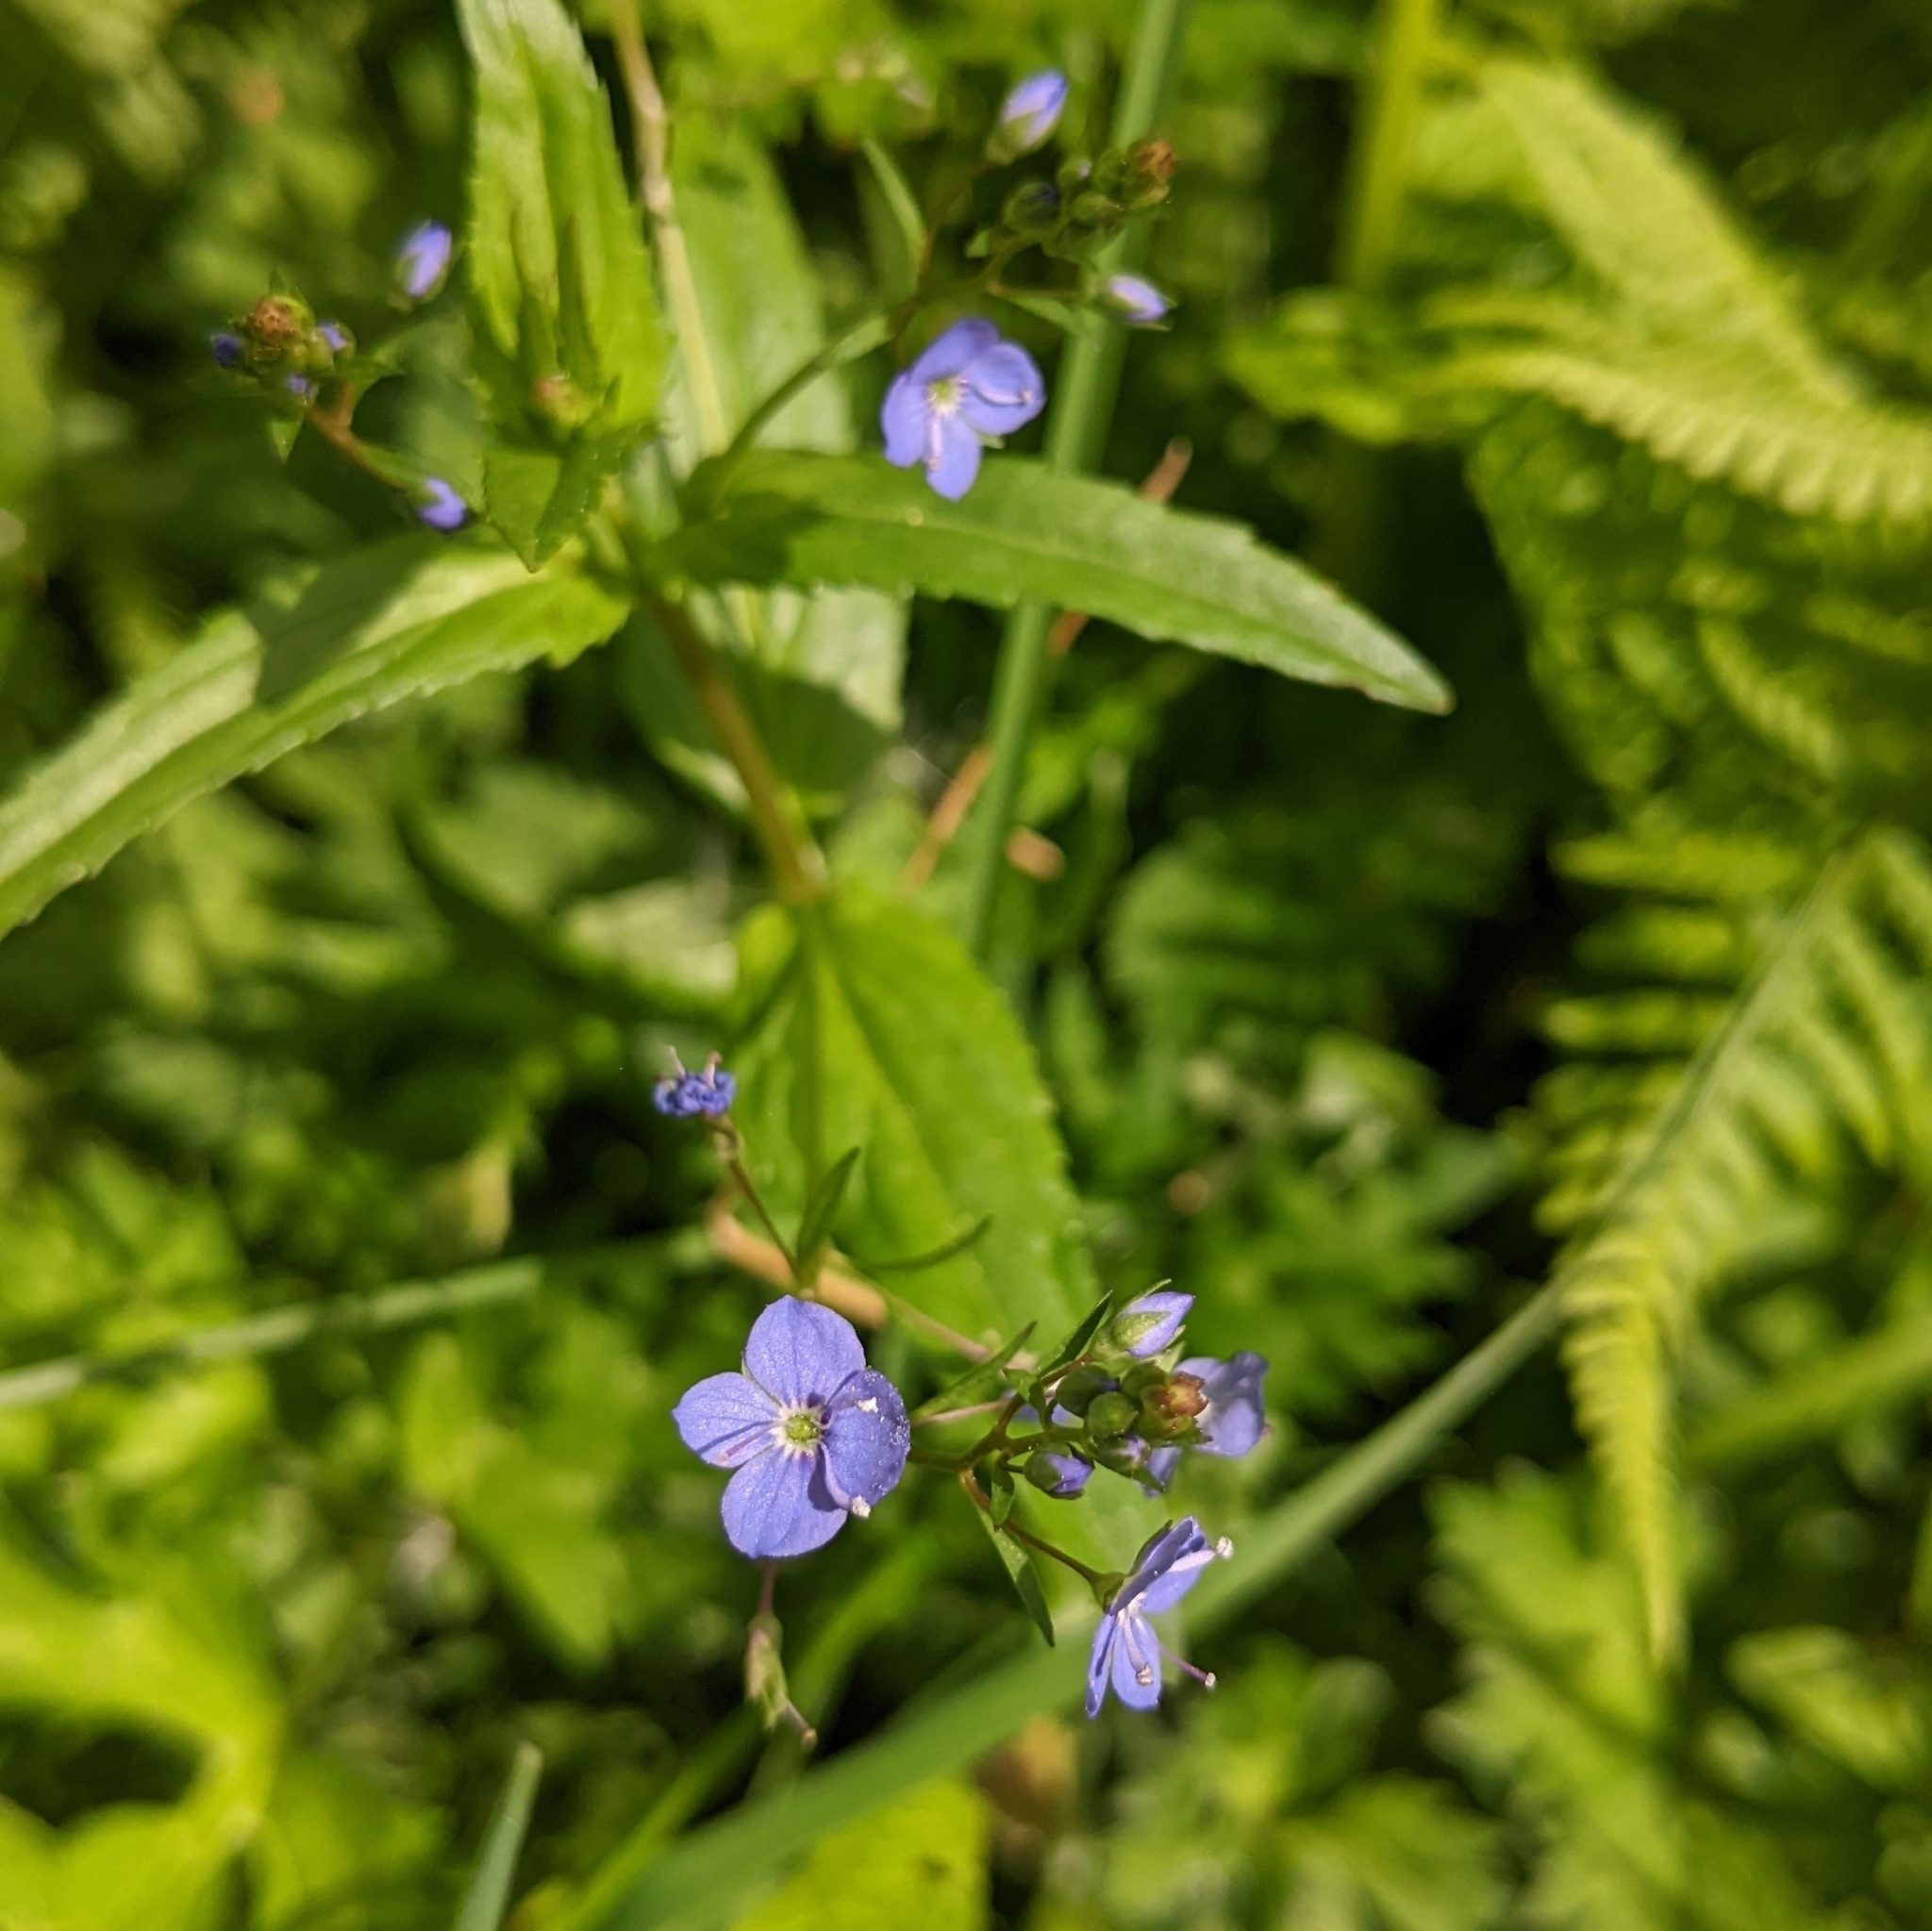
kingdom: Plantae
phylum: Tracheophyta
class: Magnoliopsida
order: Lamiales
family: Plantaginaceae
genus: Veronica
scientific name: Veronica americana
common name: American brooklime
